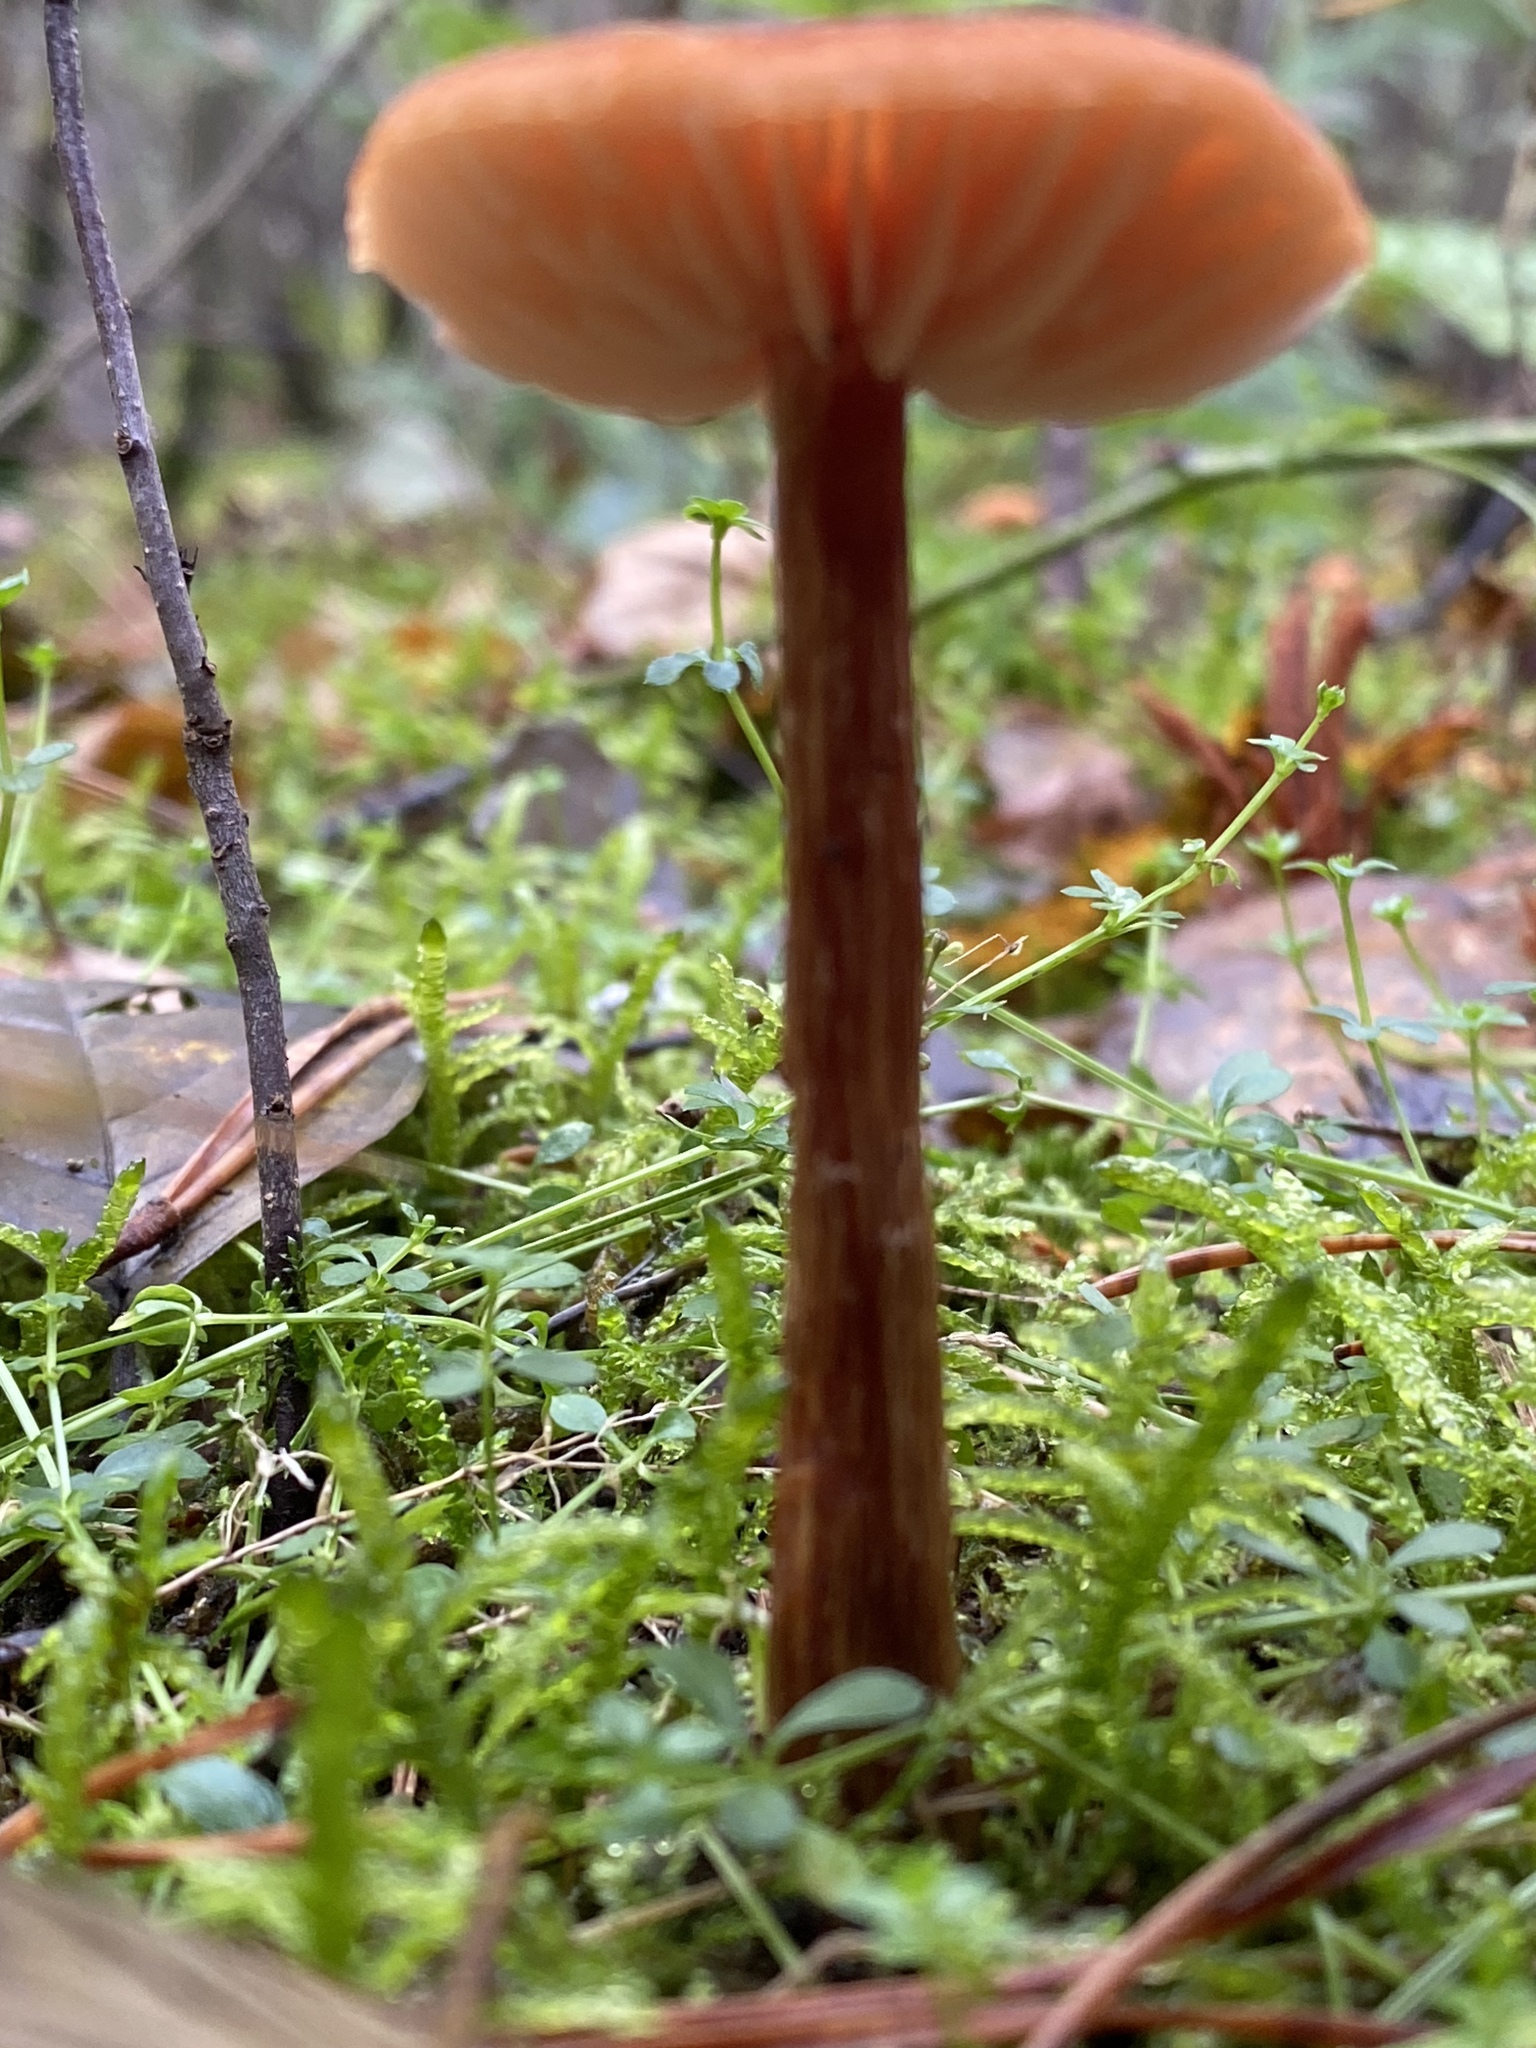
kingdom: Fungi
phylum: Basidiomycota
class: Agaricomycetes
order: Agaricales
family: Hydnangiaceae
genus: Laccaria
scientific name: Laccaria laccata
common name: Deceiver
